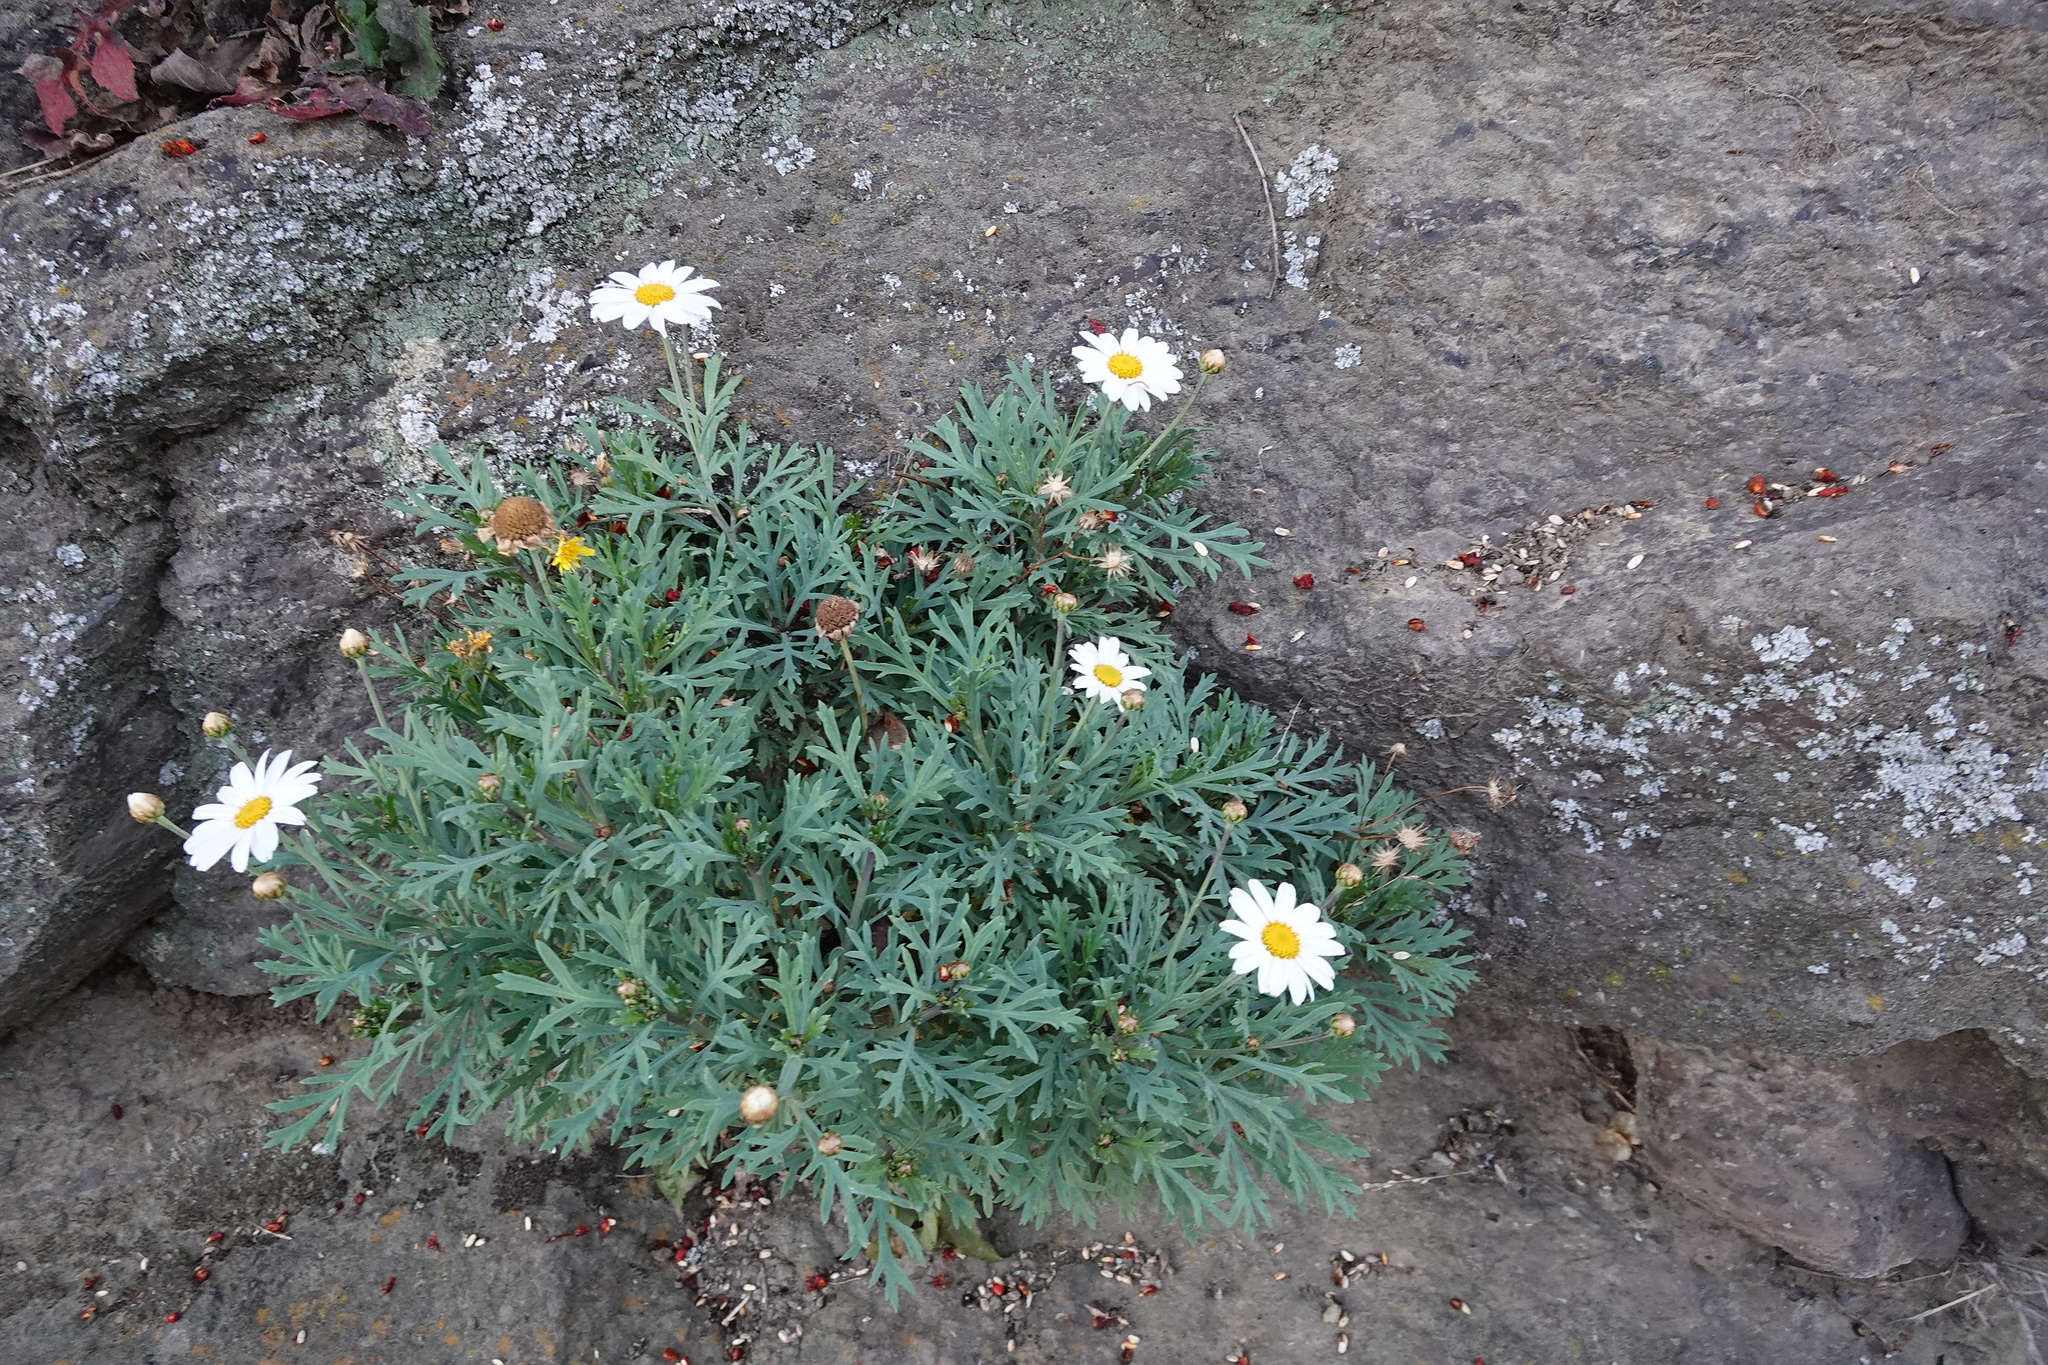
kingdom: Plantae
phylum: Tracheophyta
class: Magnoliopsida
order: Asterales
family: Asteraceae
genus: Argyranthemum
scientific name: Argyranthemum frutescens
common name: Paris daisy
